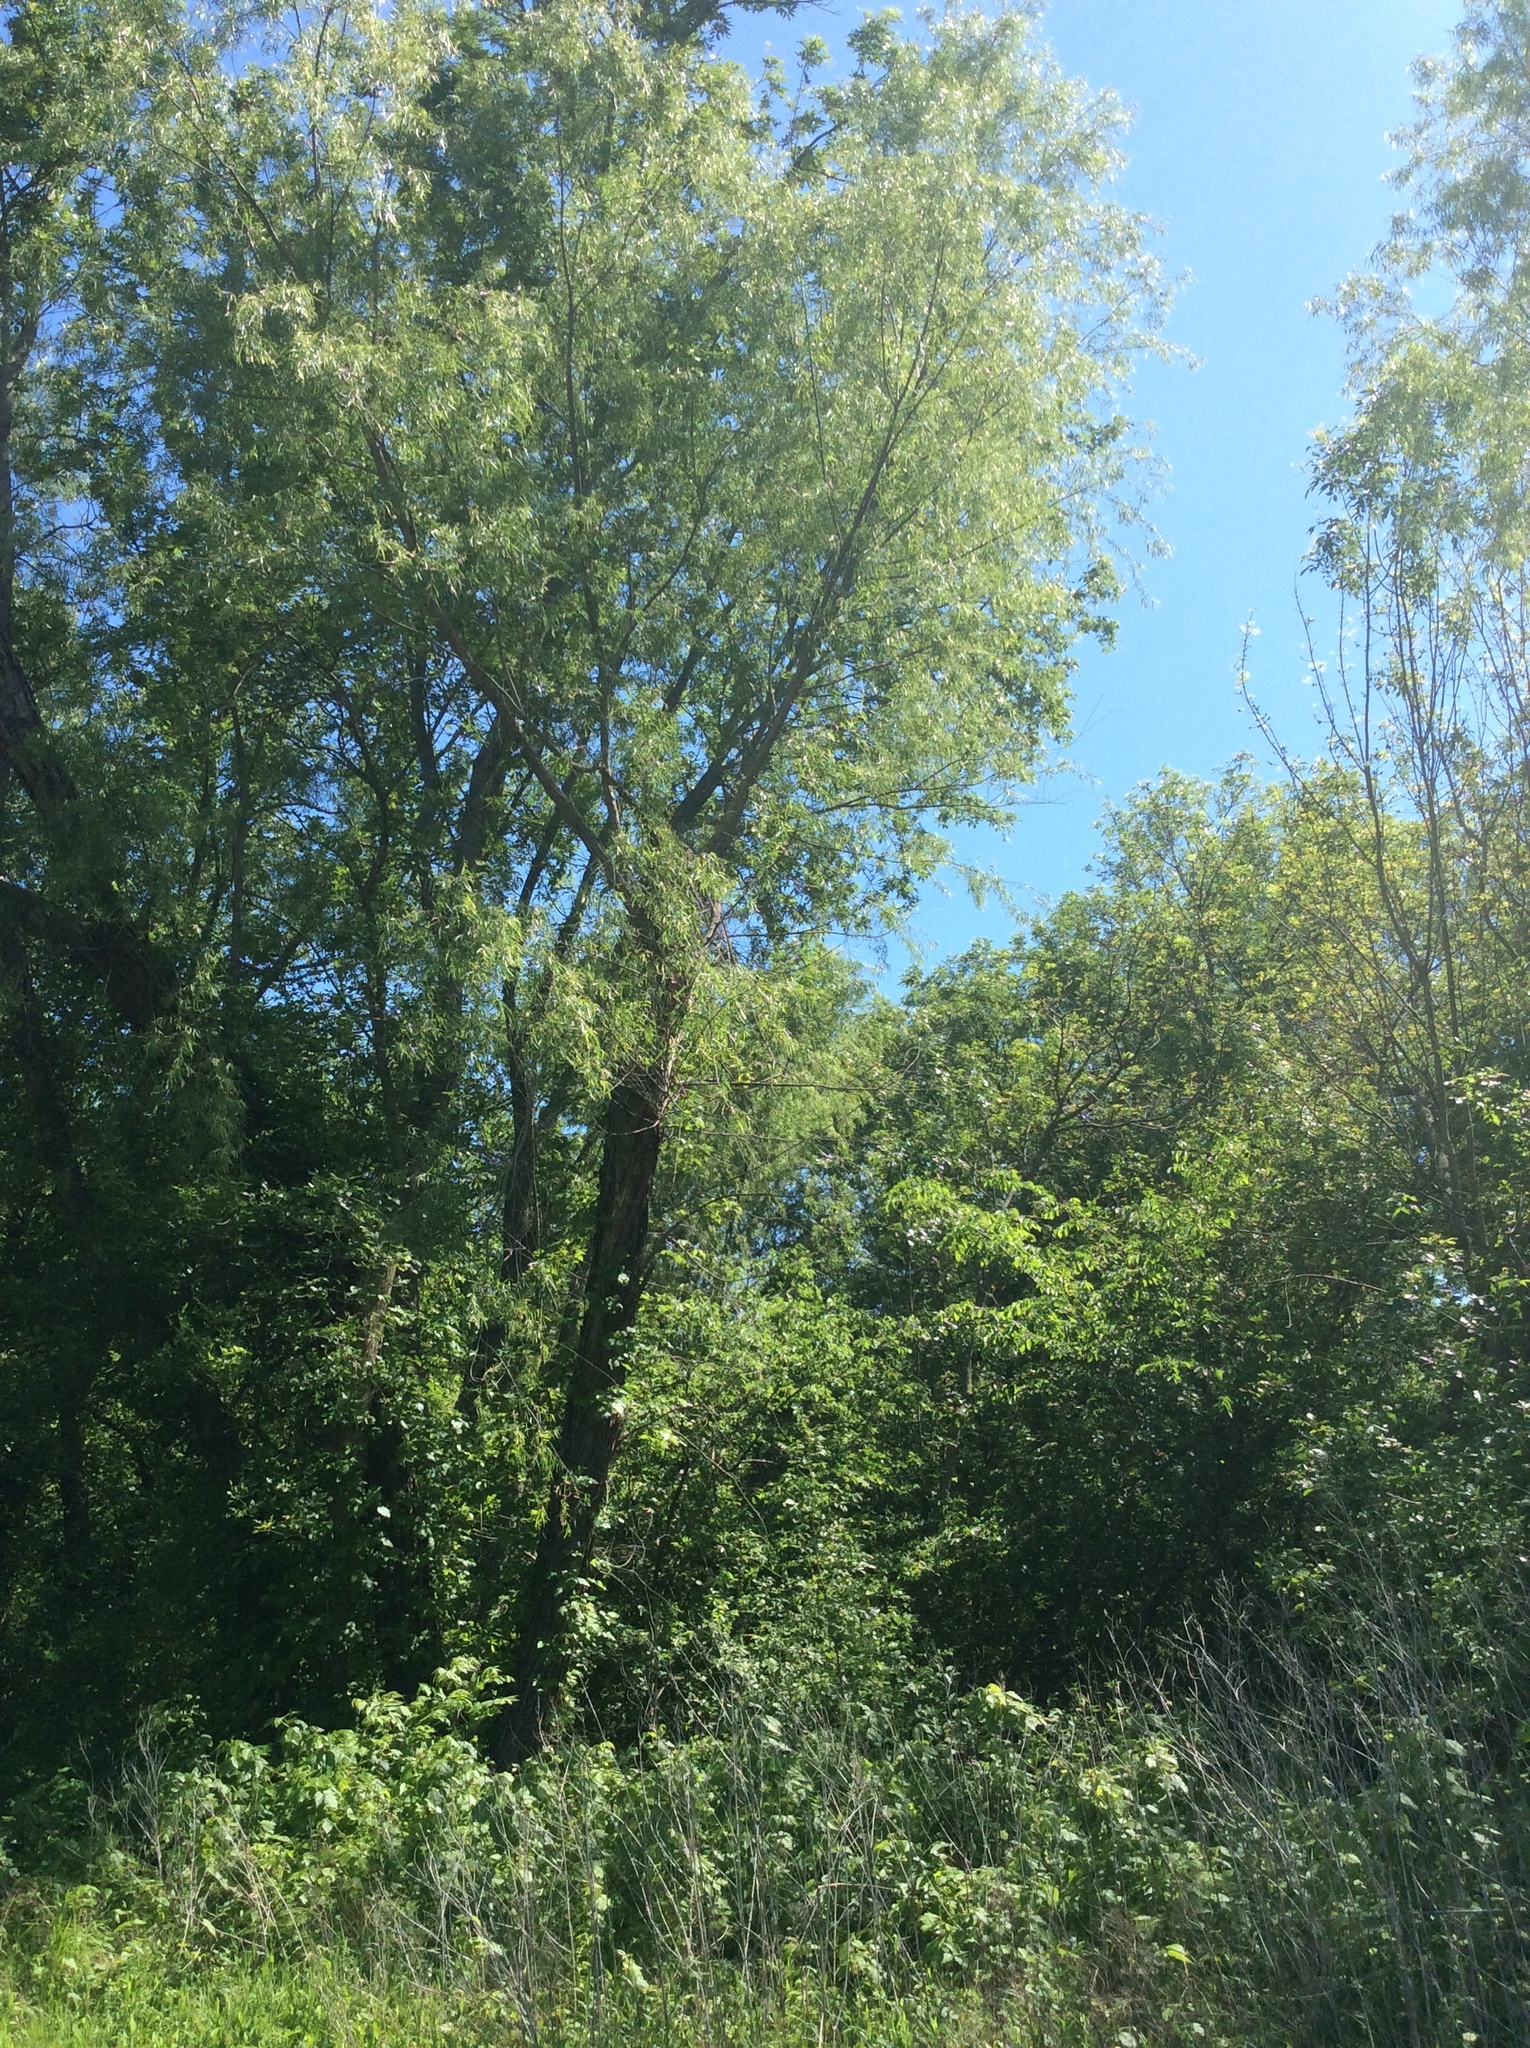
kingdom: Plantae
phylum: Tracheophyta
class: Magnoliopsida
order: Malpighiales
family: Salicaceae
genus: Salix
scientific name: Salix nigra
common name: Black willow
